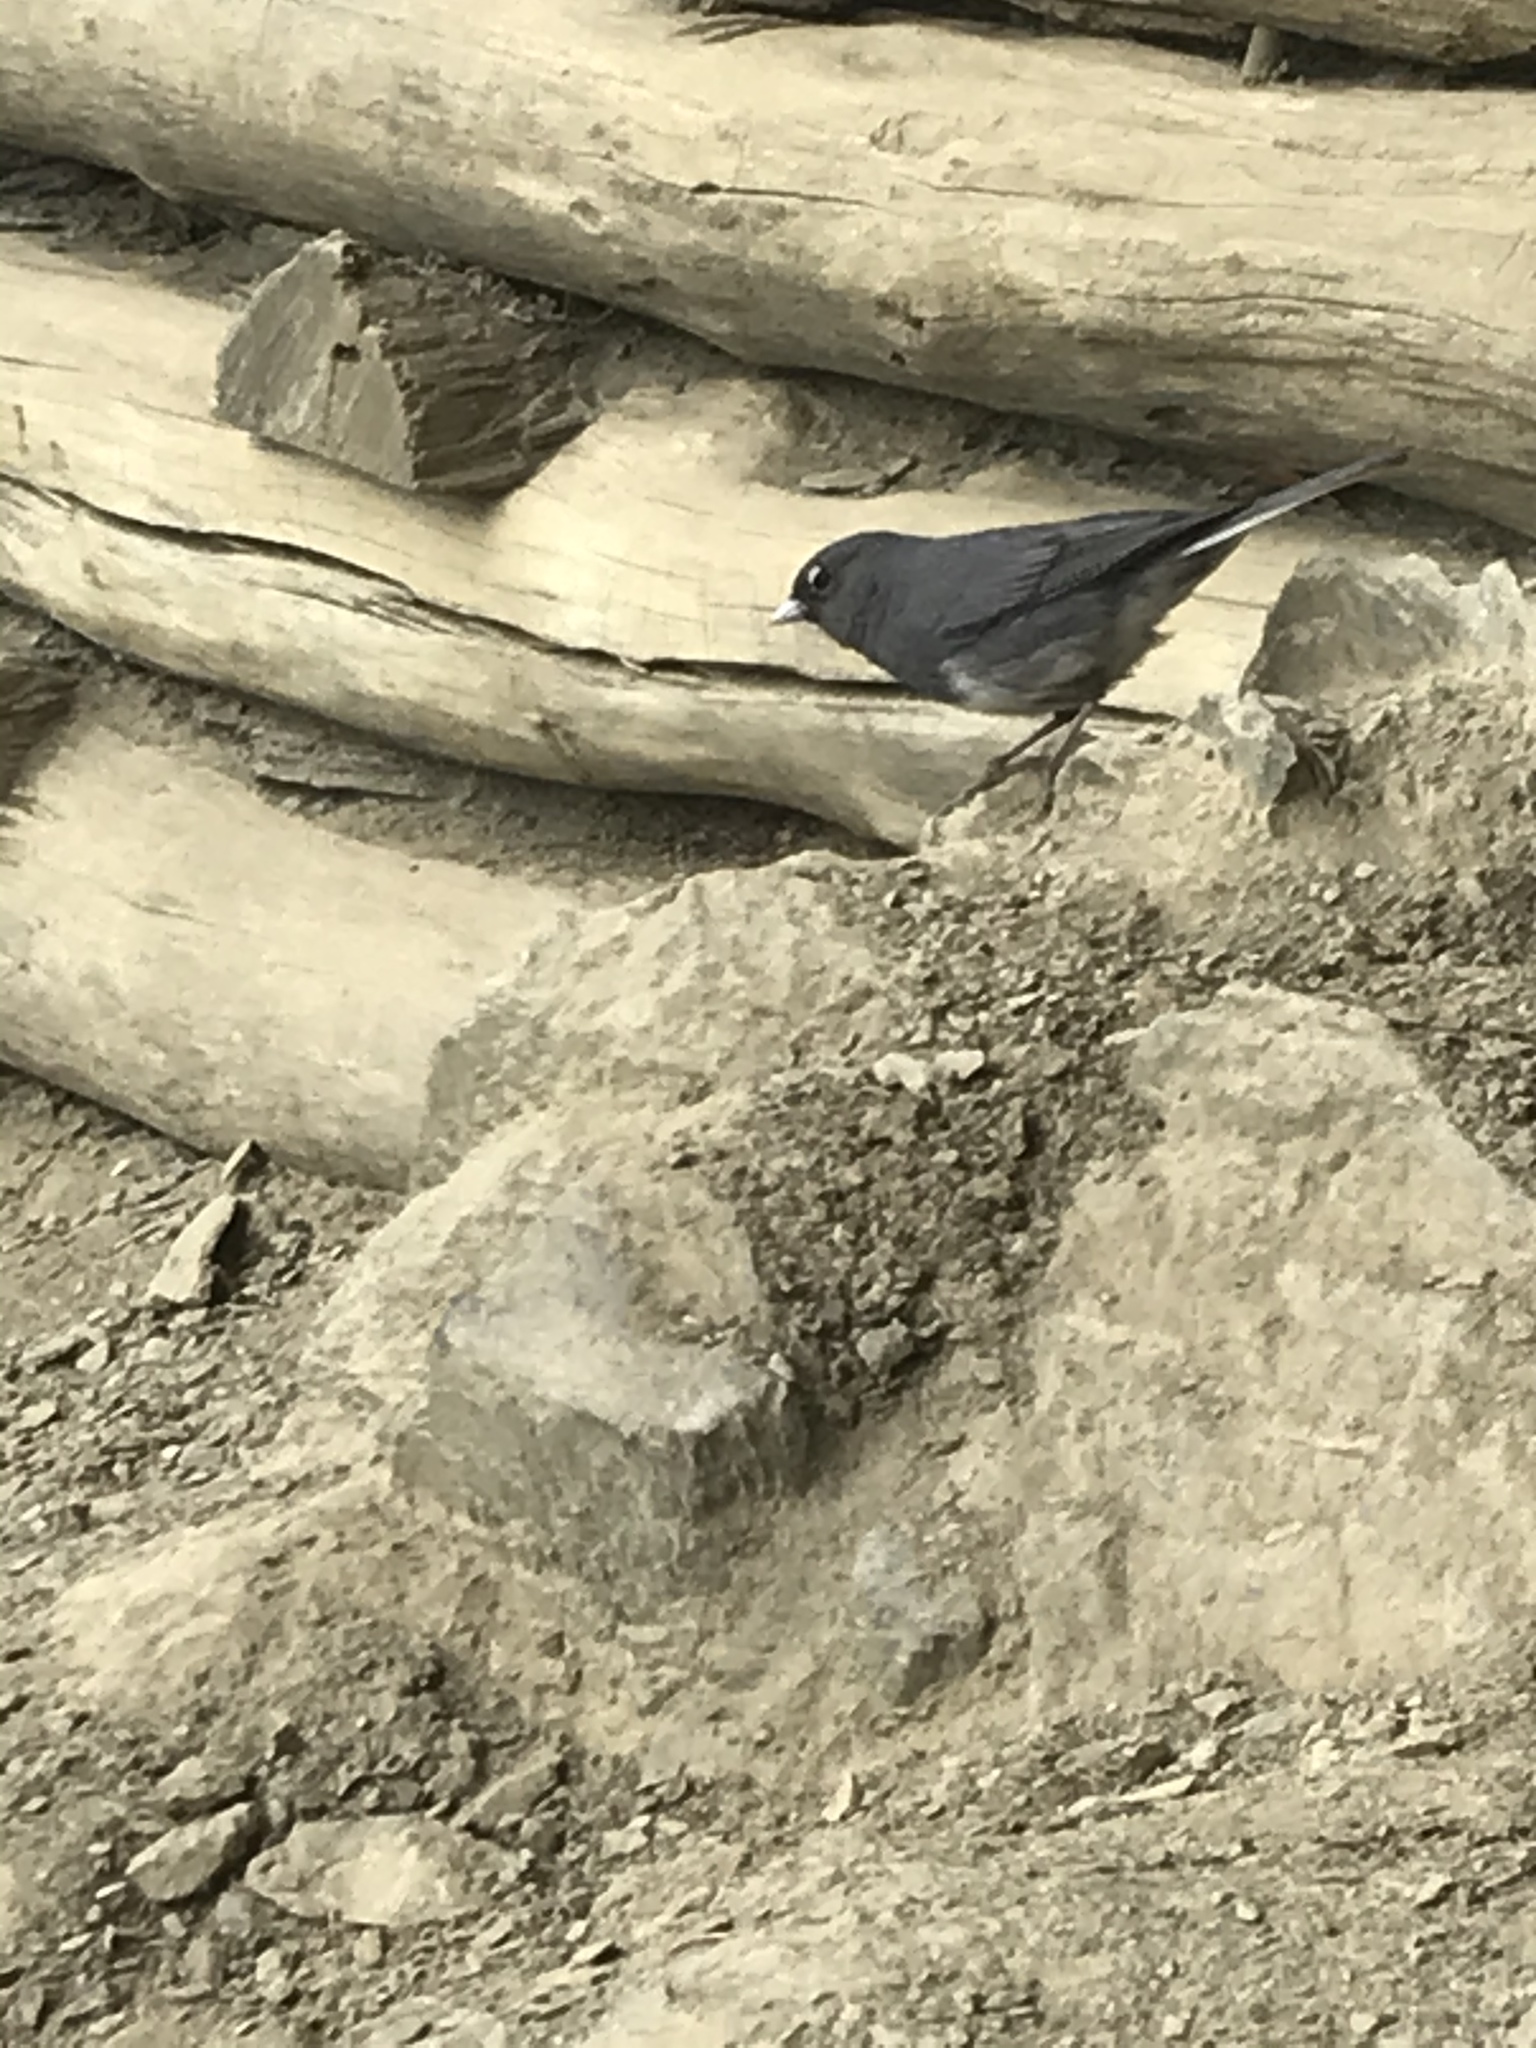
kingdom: Animalia
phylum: Chordata
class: Aves
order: Passeriformes
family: Passerellidae
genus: Junco
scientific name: Junco hyemalis
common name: Dark-eyed junco
